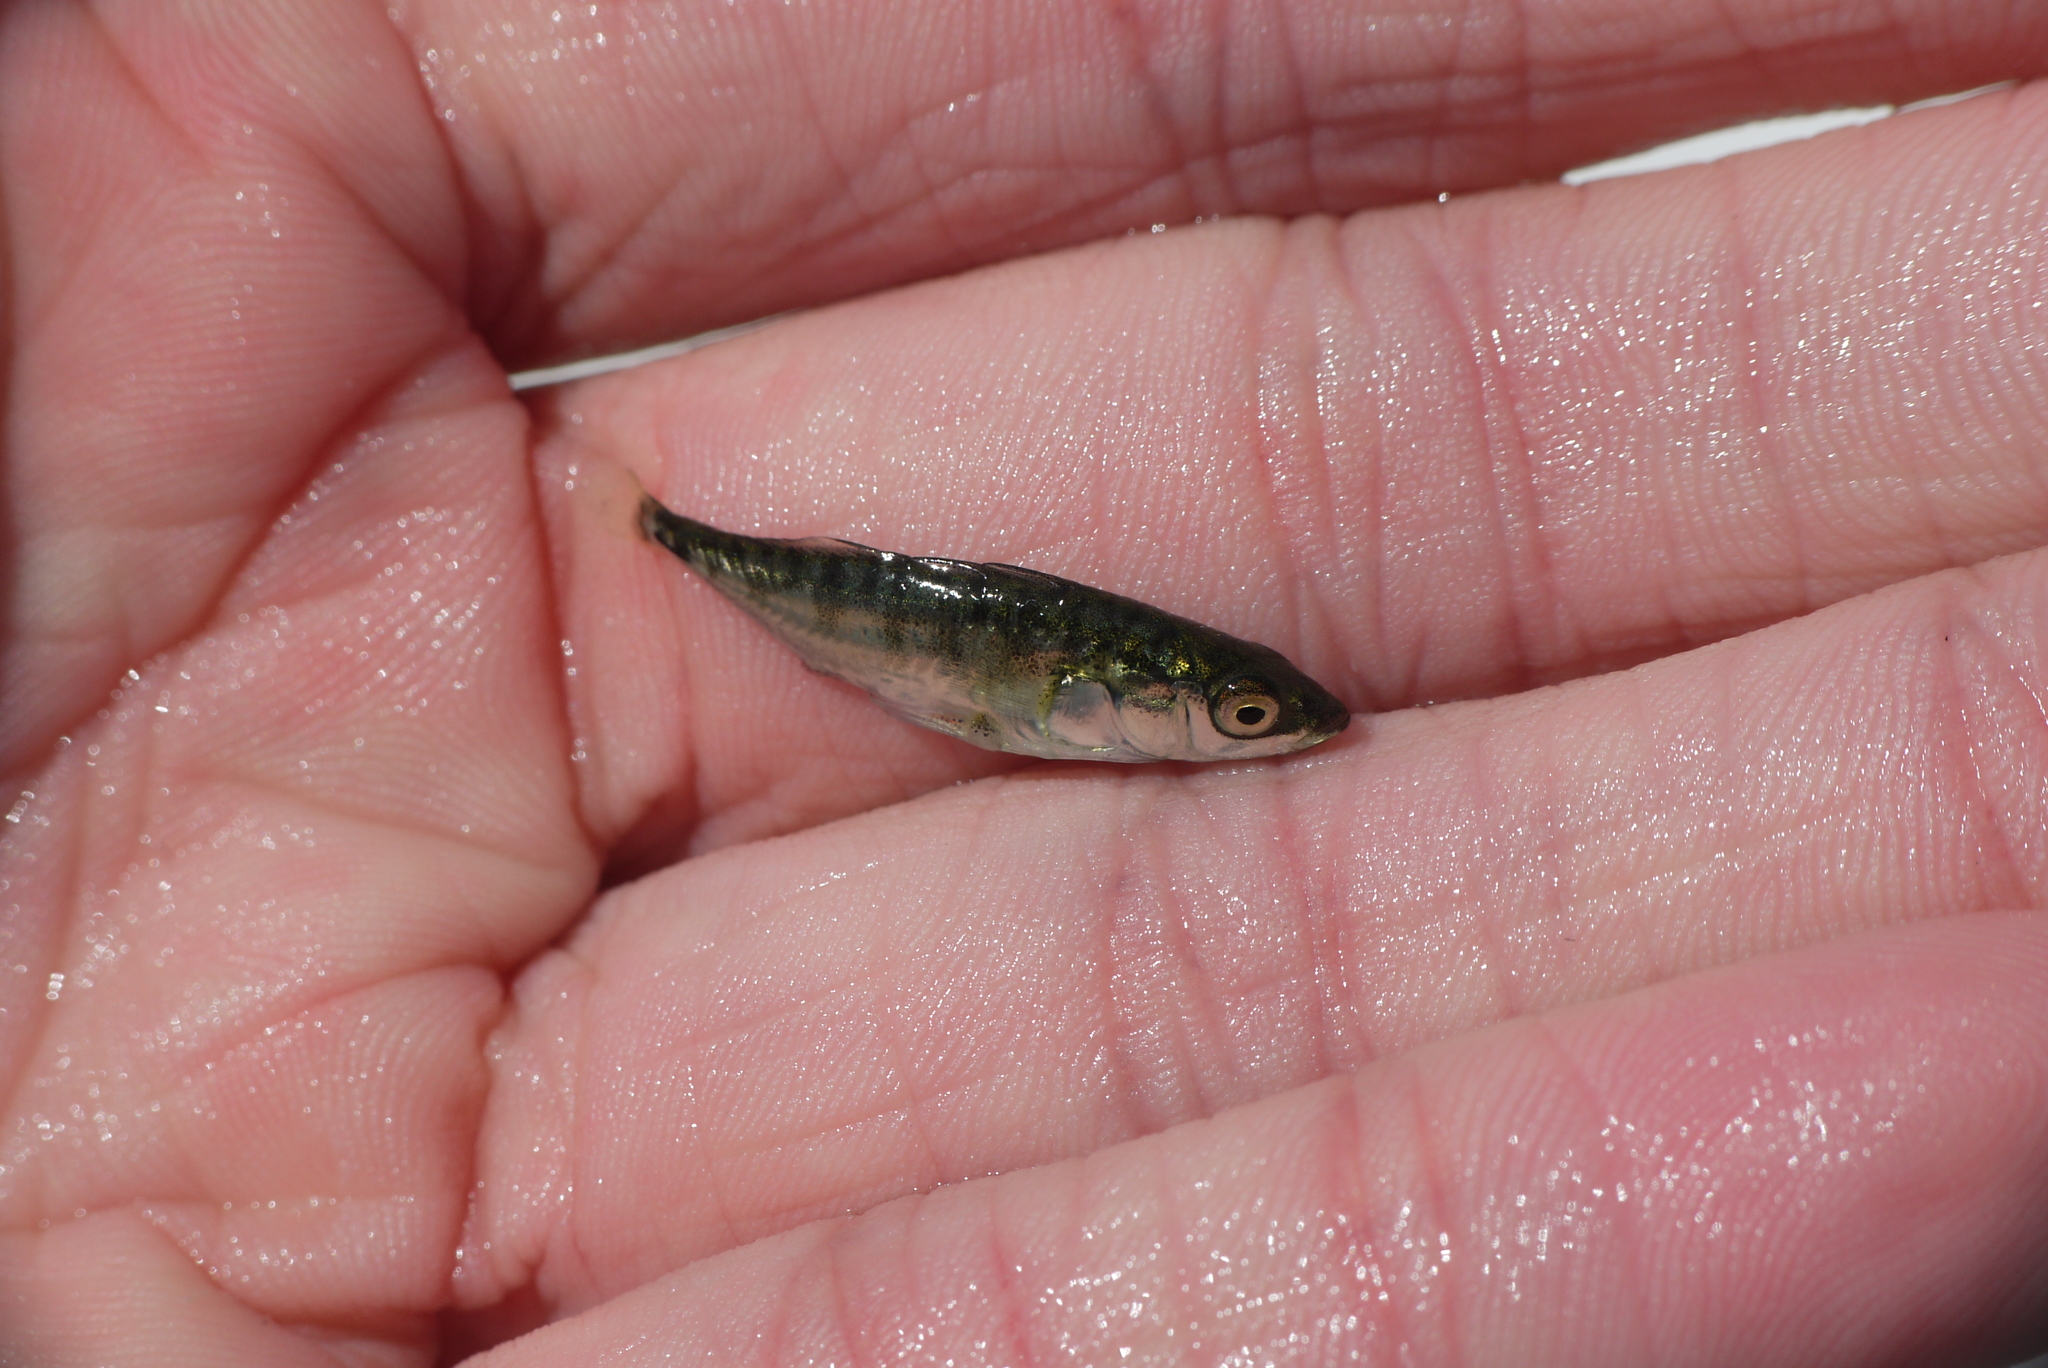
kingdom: Animalia
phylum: Chordata
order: Gasterosteiformes
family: Gasterosteidae
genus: Gasterosteus
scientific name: Gasterosteus aculeatus
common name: Three-spined stickleback
